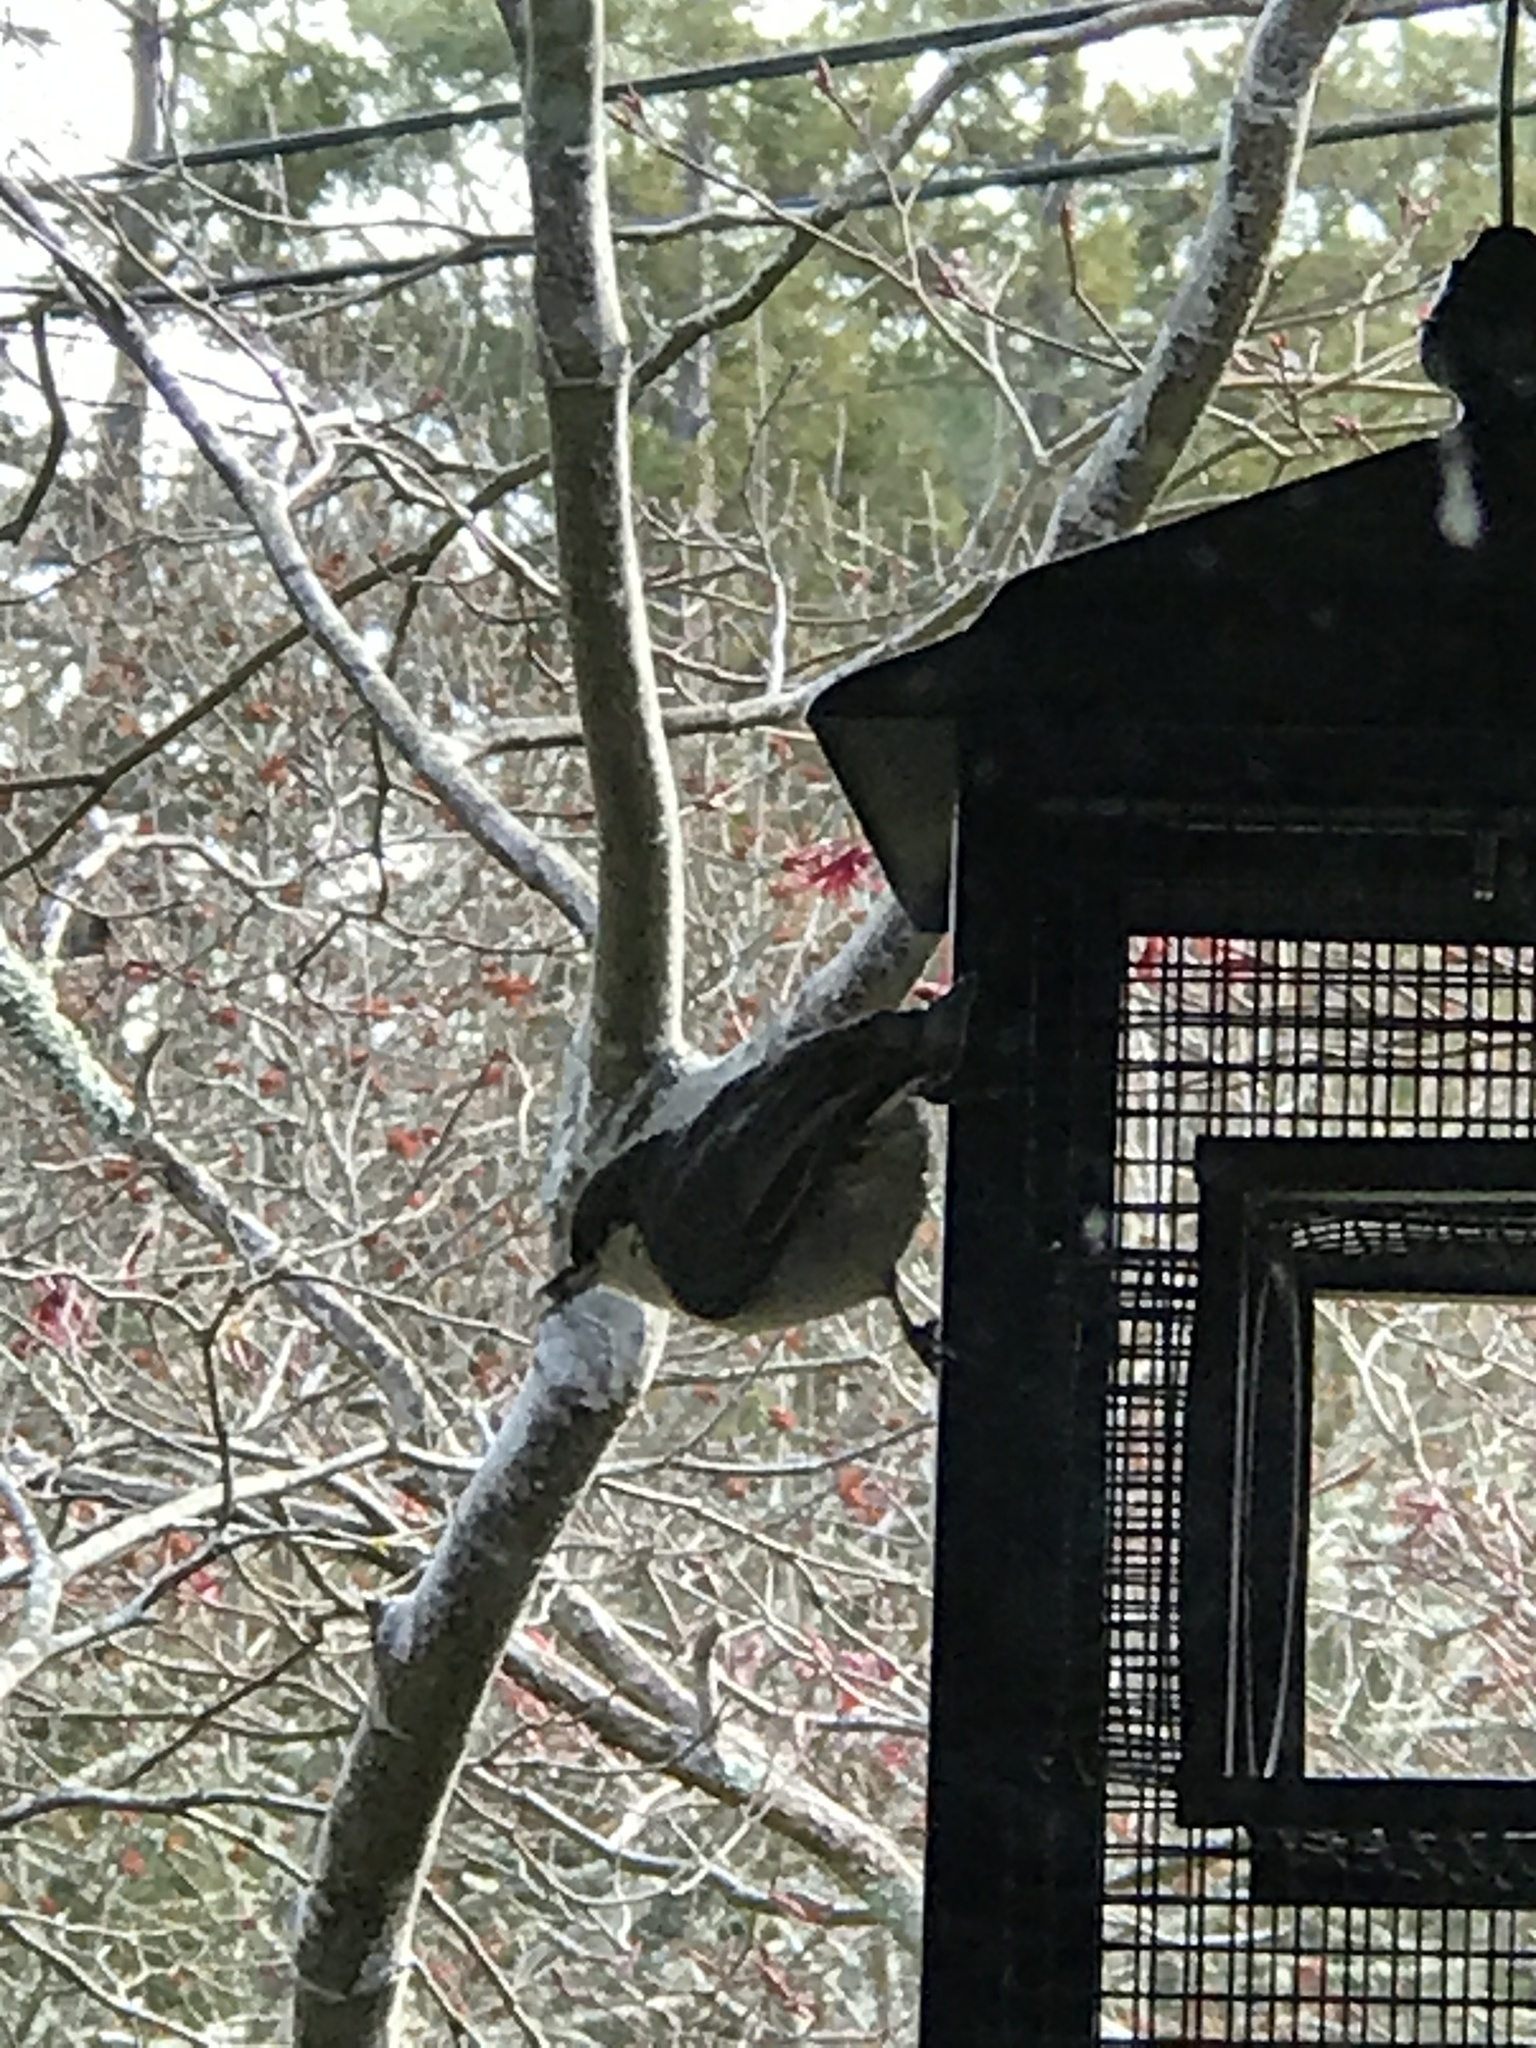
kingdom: Animalia
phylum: Chordata
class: Aves
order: Passeriformes
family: Sittidae
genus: Sitta
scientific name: Sitta pygmaea
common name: Pygmy nuthatch
